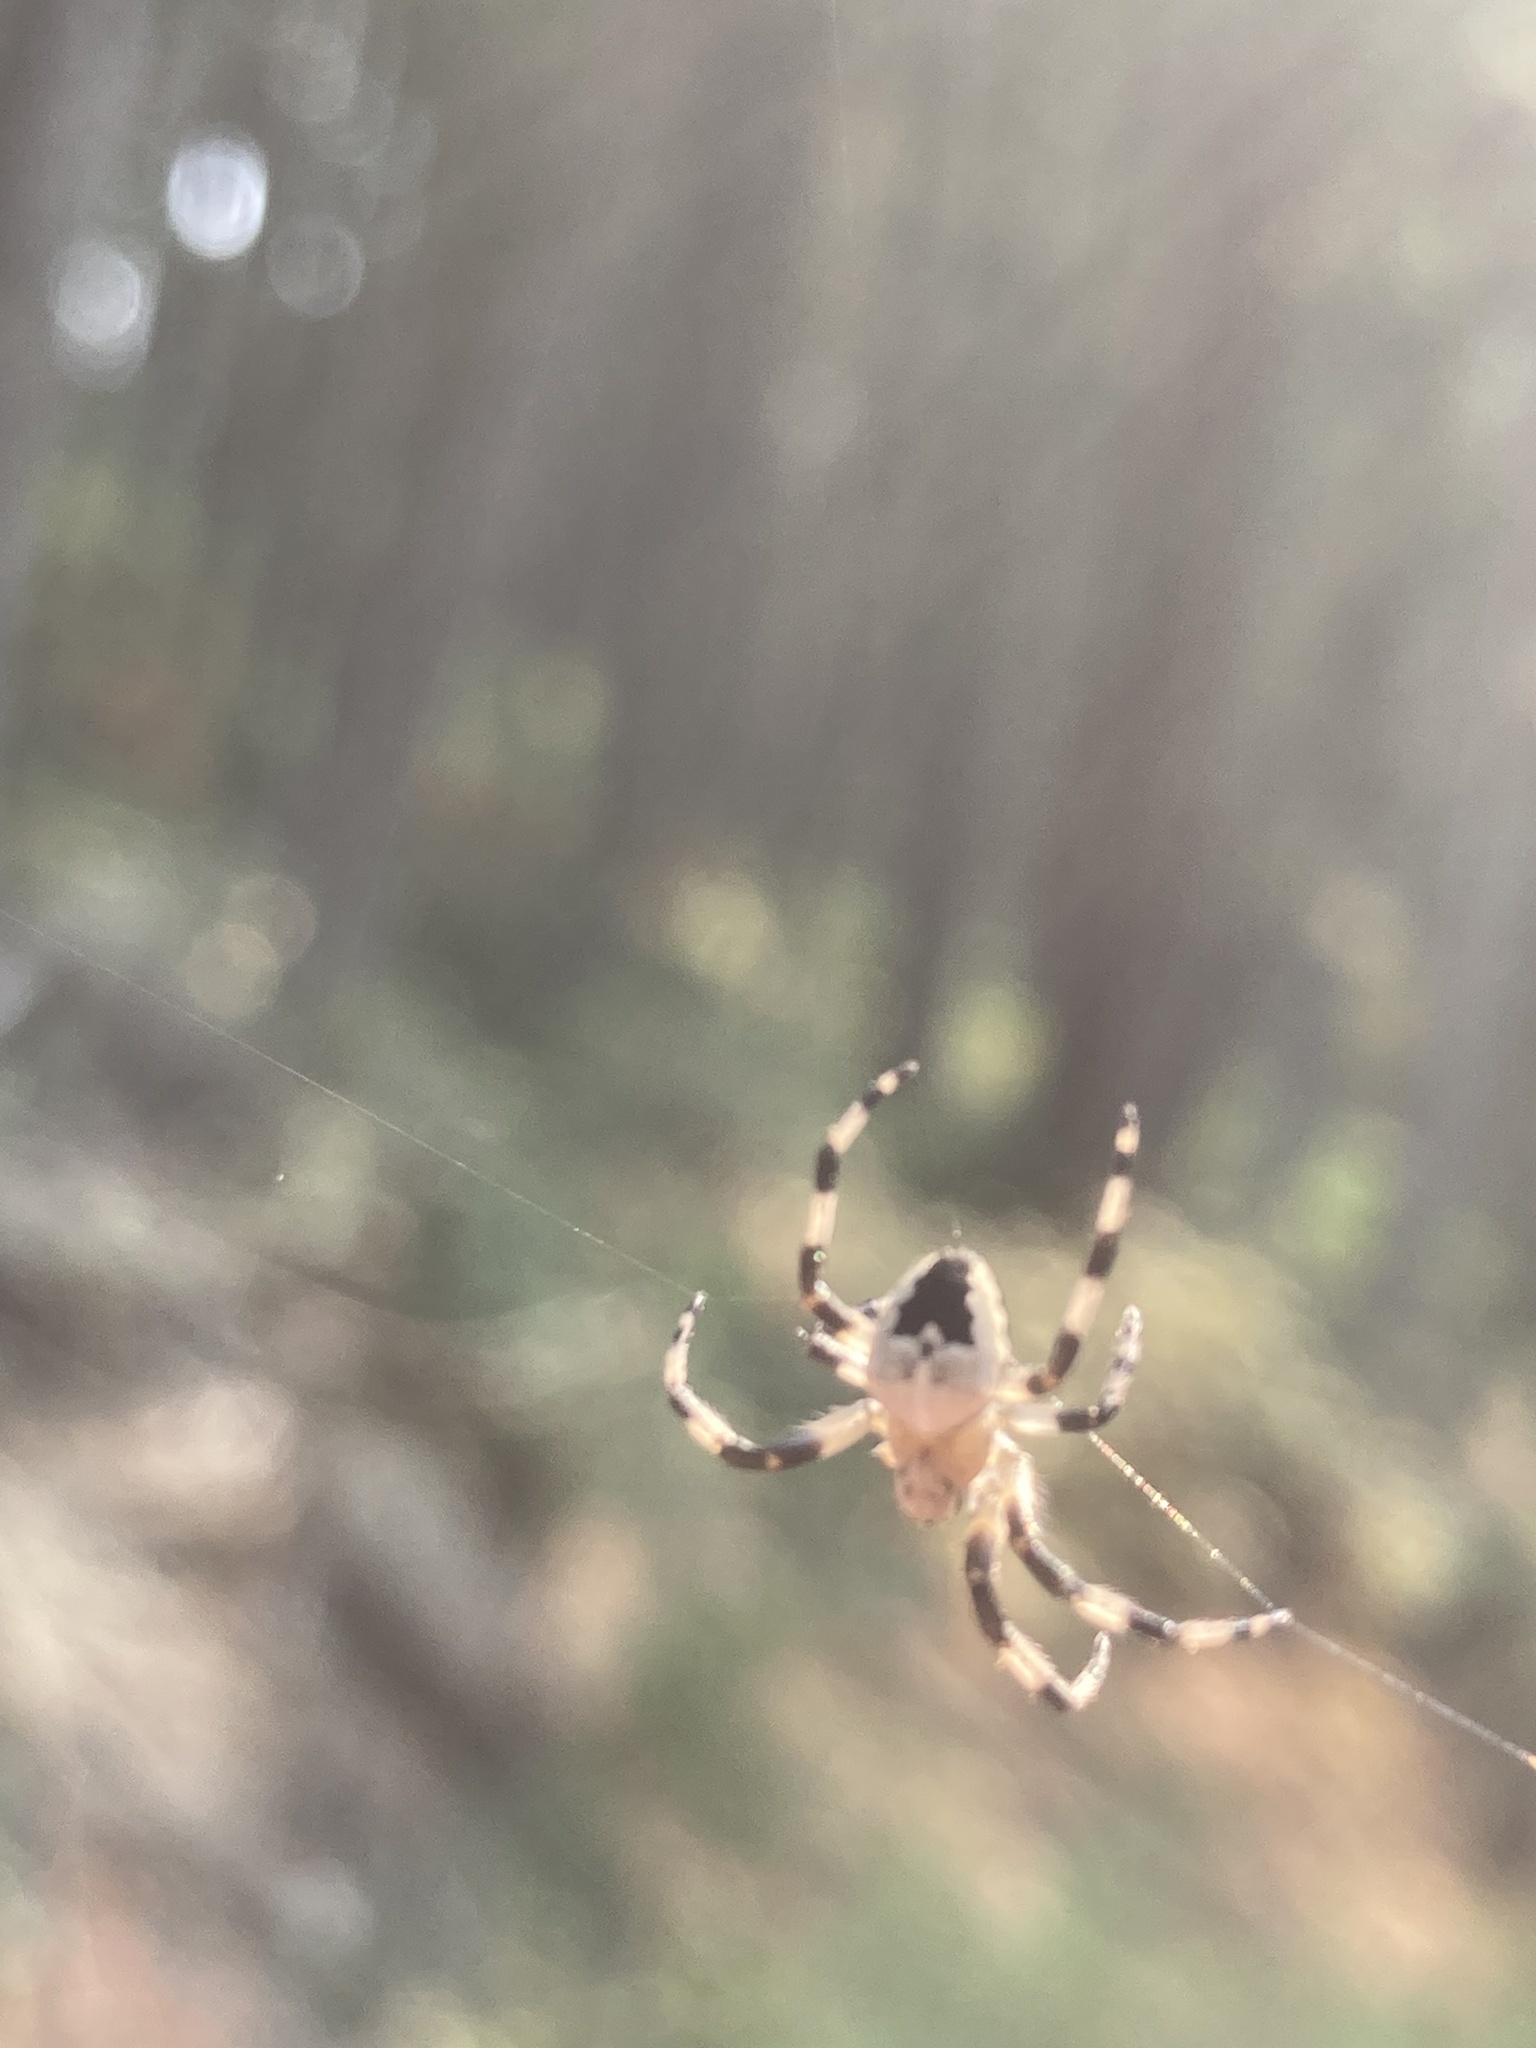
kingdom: Animalia
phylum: Arthropoda
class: Arachnida
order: Araneae
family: Araneidae
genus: Araneus
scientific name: Araneus nordmanni
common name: Nordmann's orbweaver
